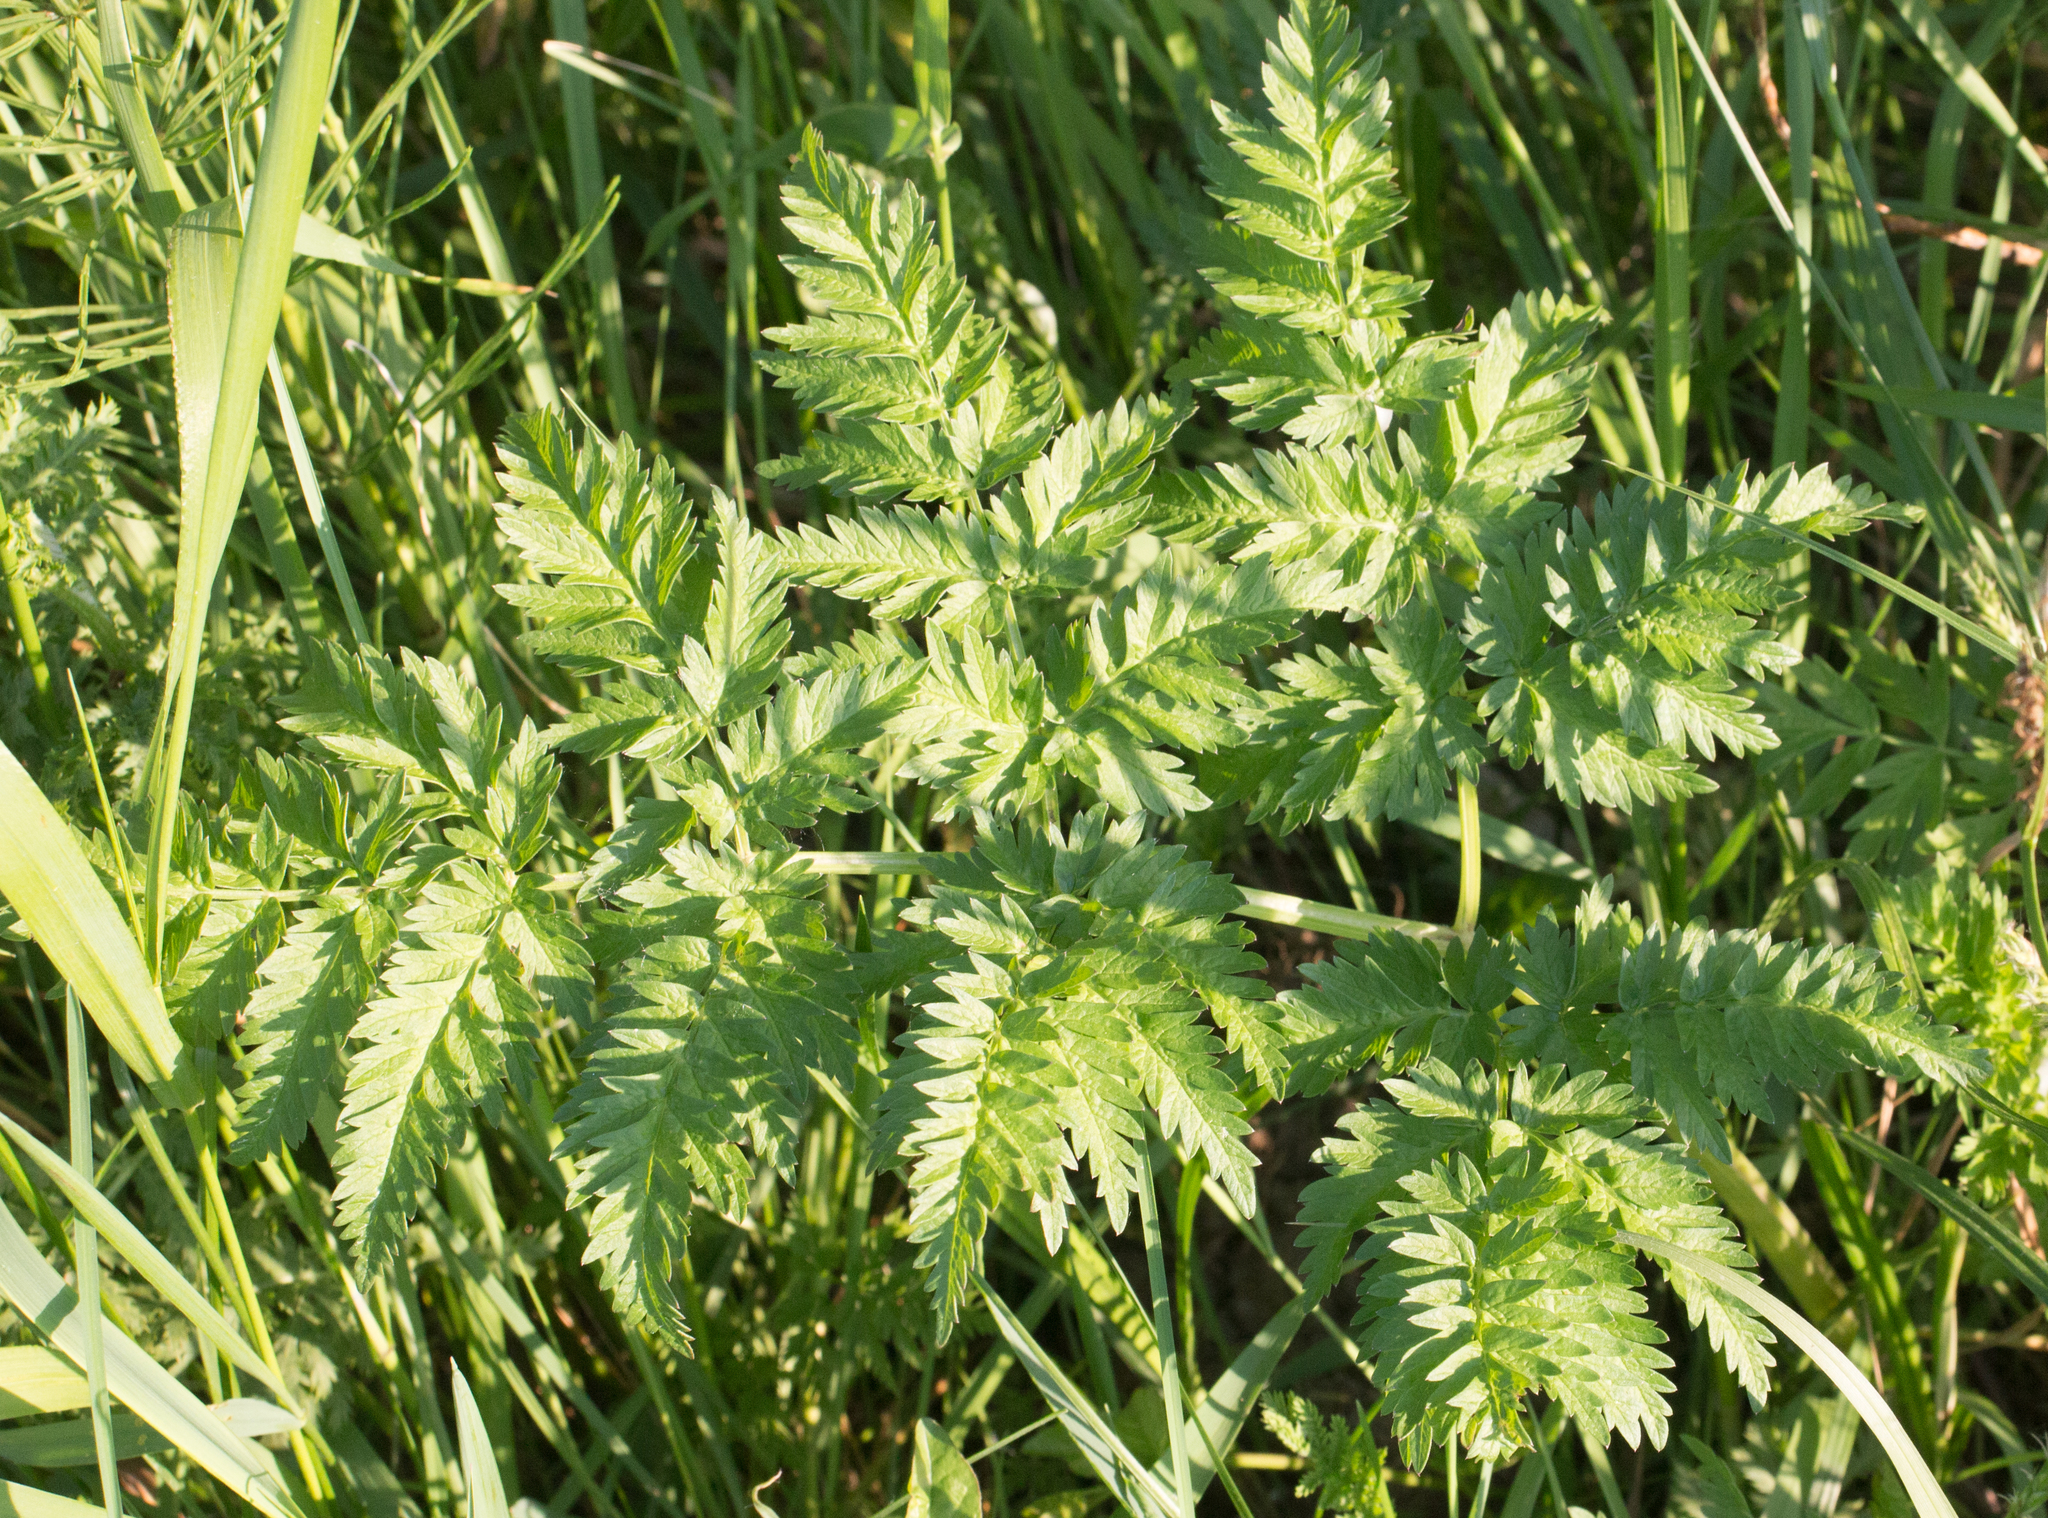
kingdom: Plantae
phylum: Tracheophyta
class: Magnoliopsida
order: Apiales
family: Apiaceae
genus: Anthriscus
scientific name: Anthriscus sylvestris
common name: Cow parsley
